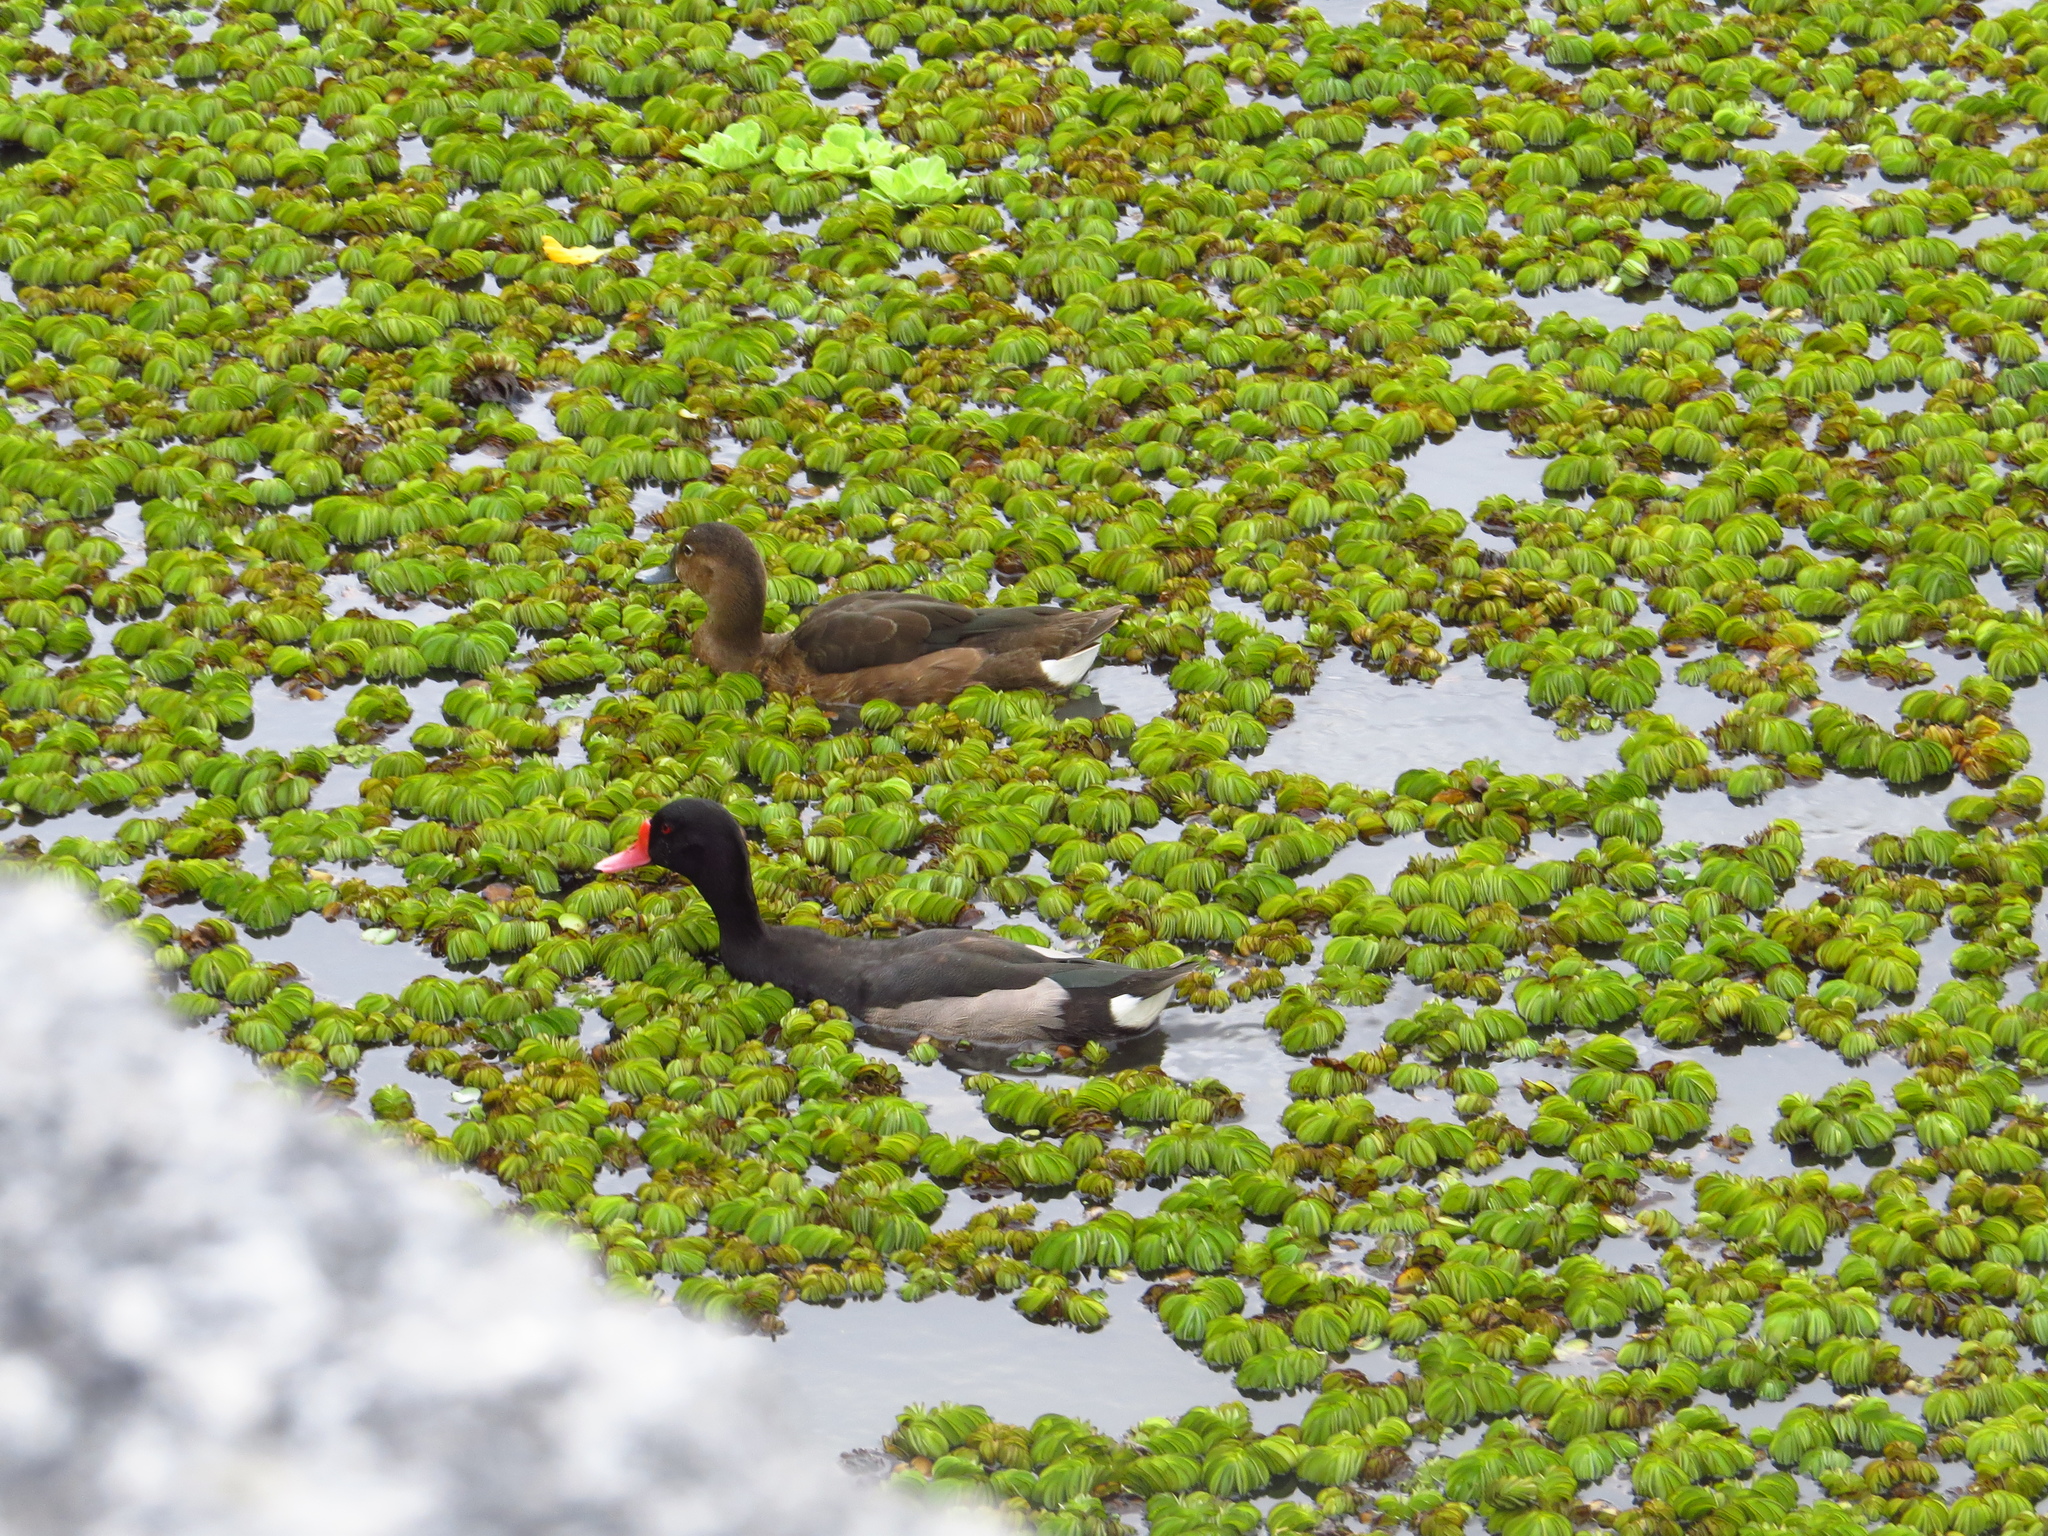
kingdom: Animalia
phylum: Chordata
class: Aves
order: Anseriformes
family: Anatidae
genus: Netta
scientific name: Netta peposaca
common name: Rosy-billed pochard
